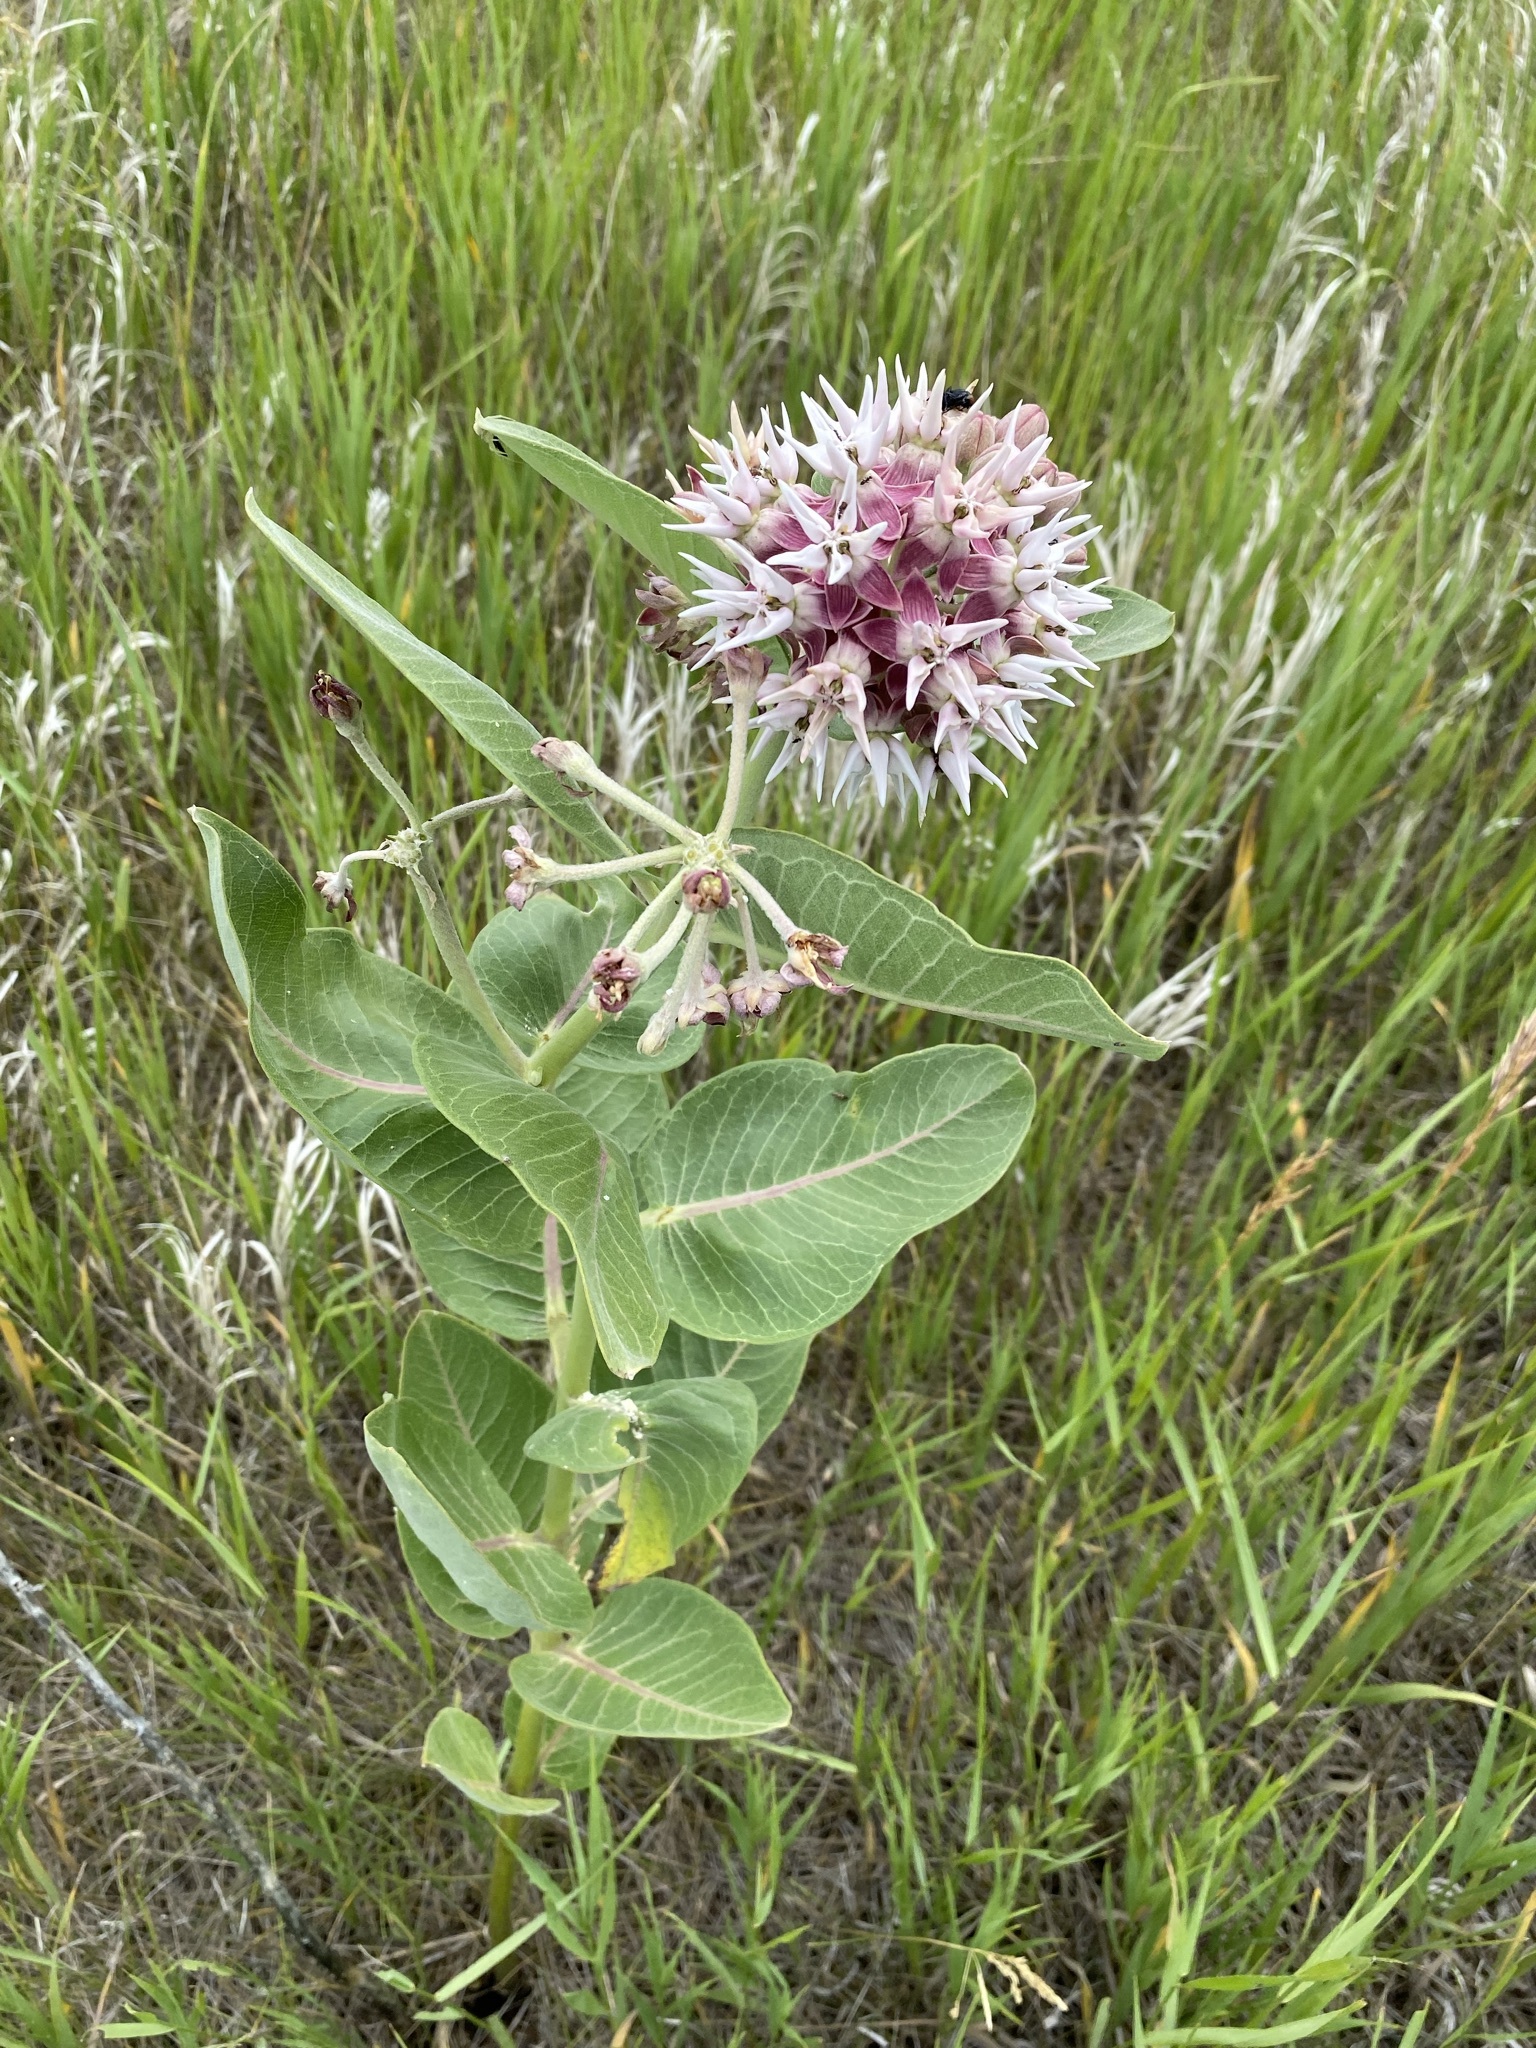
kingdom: Plantae
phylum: Tracheophyta
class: Magnoliopsida
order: Gentianales
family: Apocynaceae
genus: Asclepias
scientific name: Asclepias speciosa
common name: Showy milkweed
